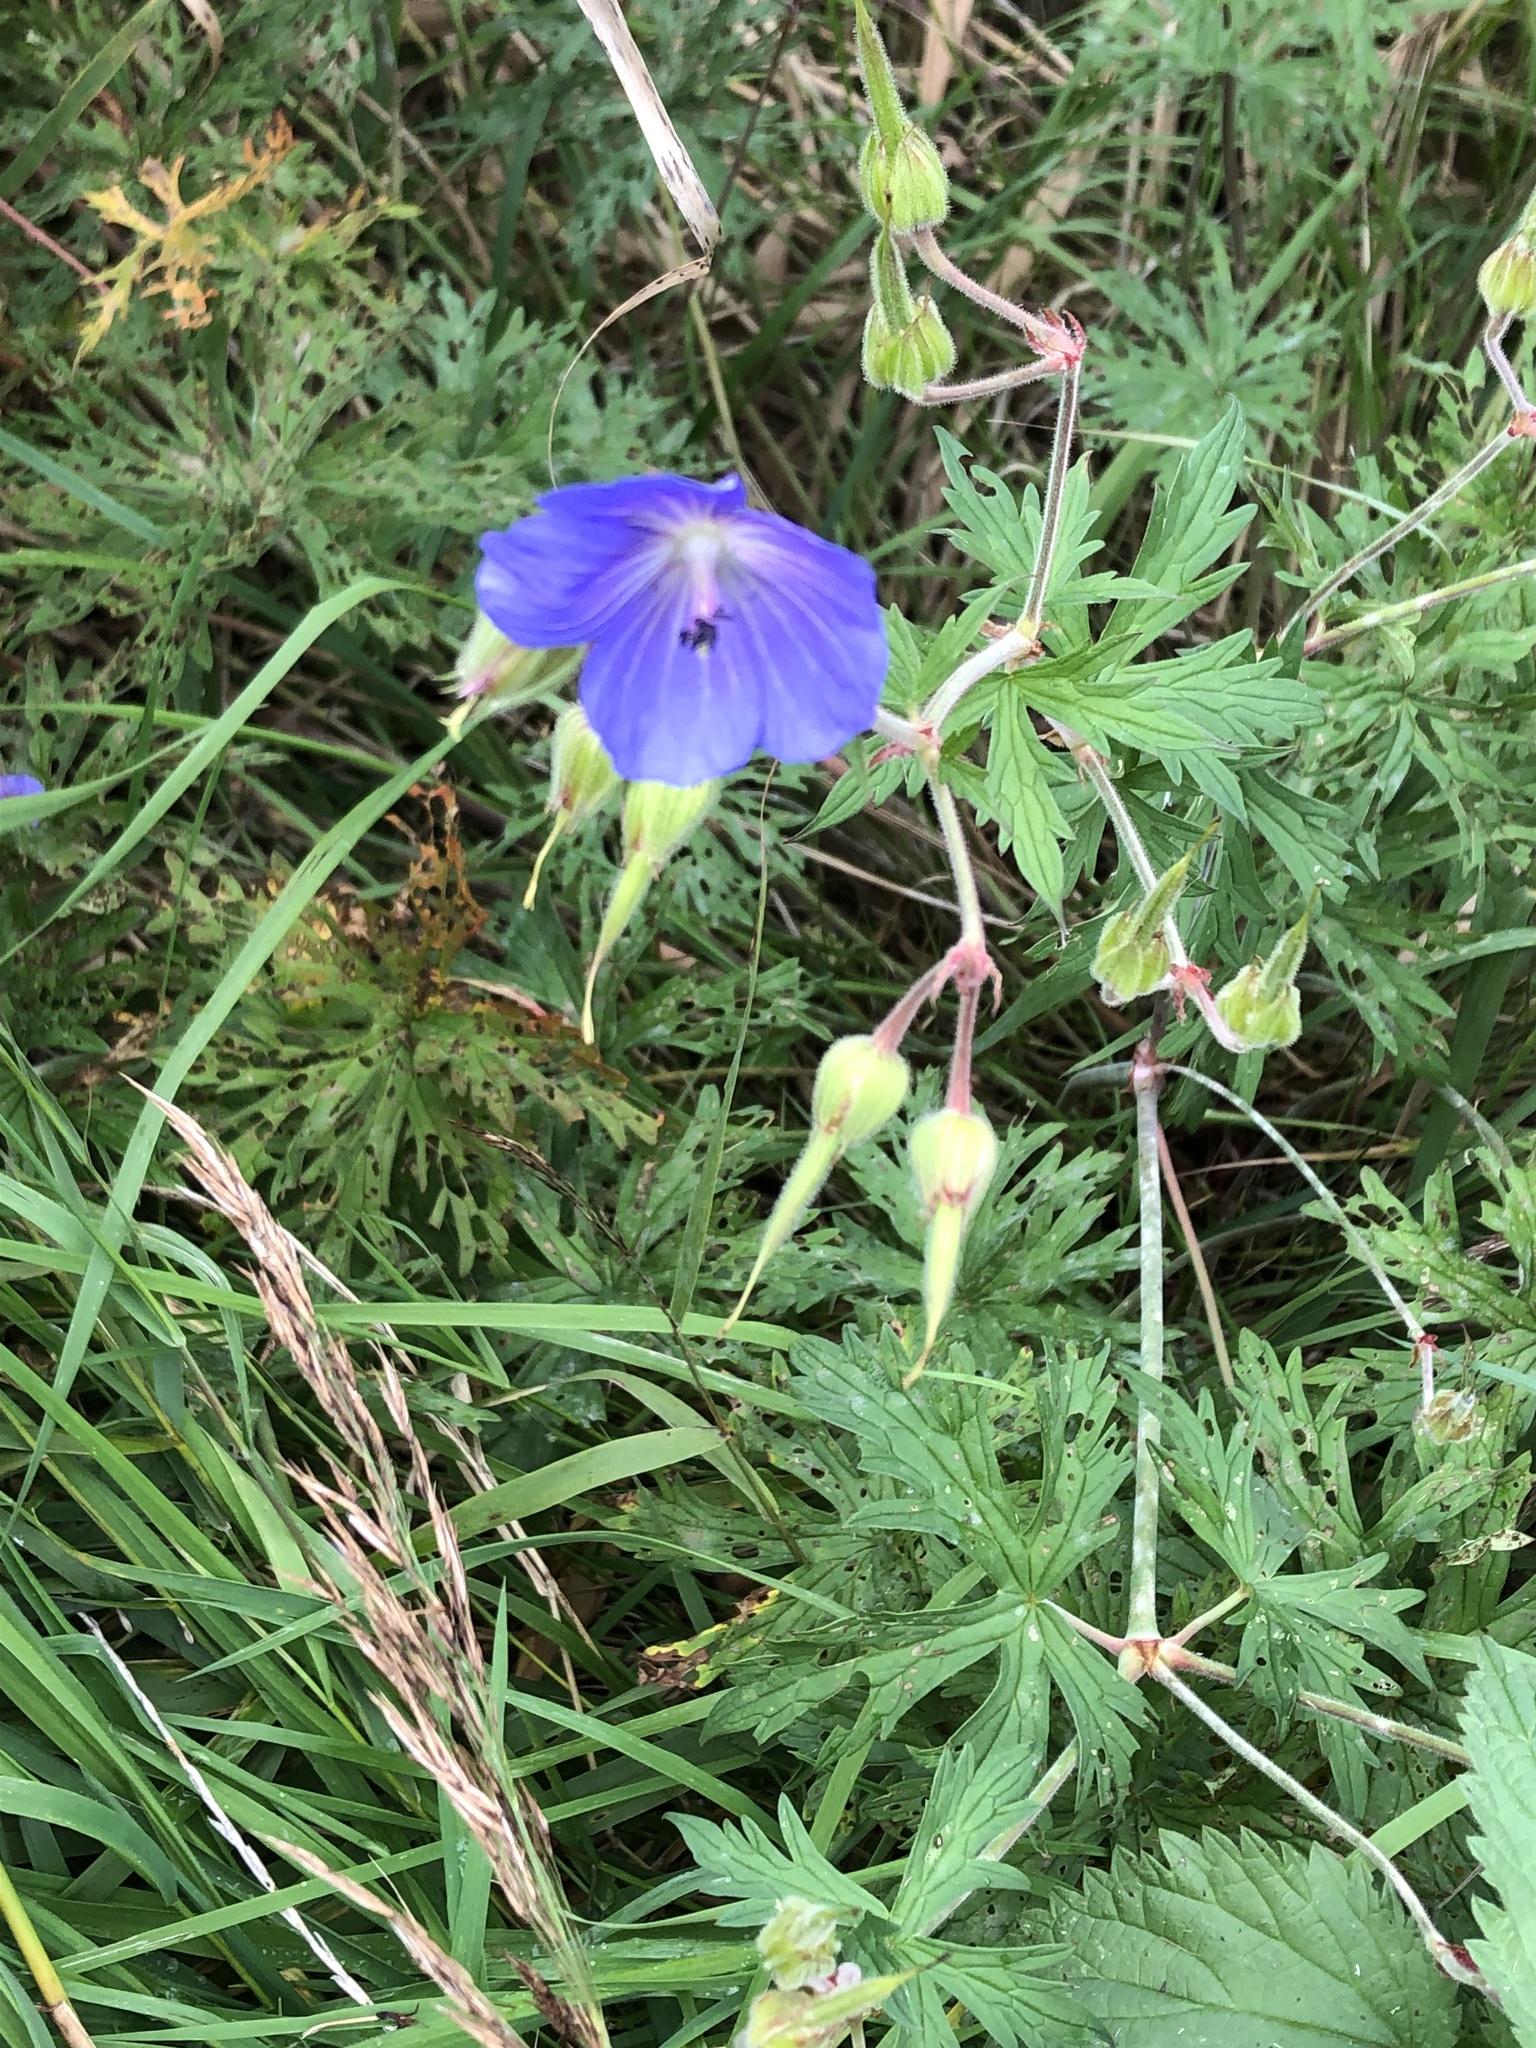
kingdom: Plantae
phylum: Tracheophyta
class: Magnoliopsida
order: Geraniales
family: Geraniaceae
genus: Geranium
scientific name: Geranium pratense
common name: Meadow crane's-bill
